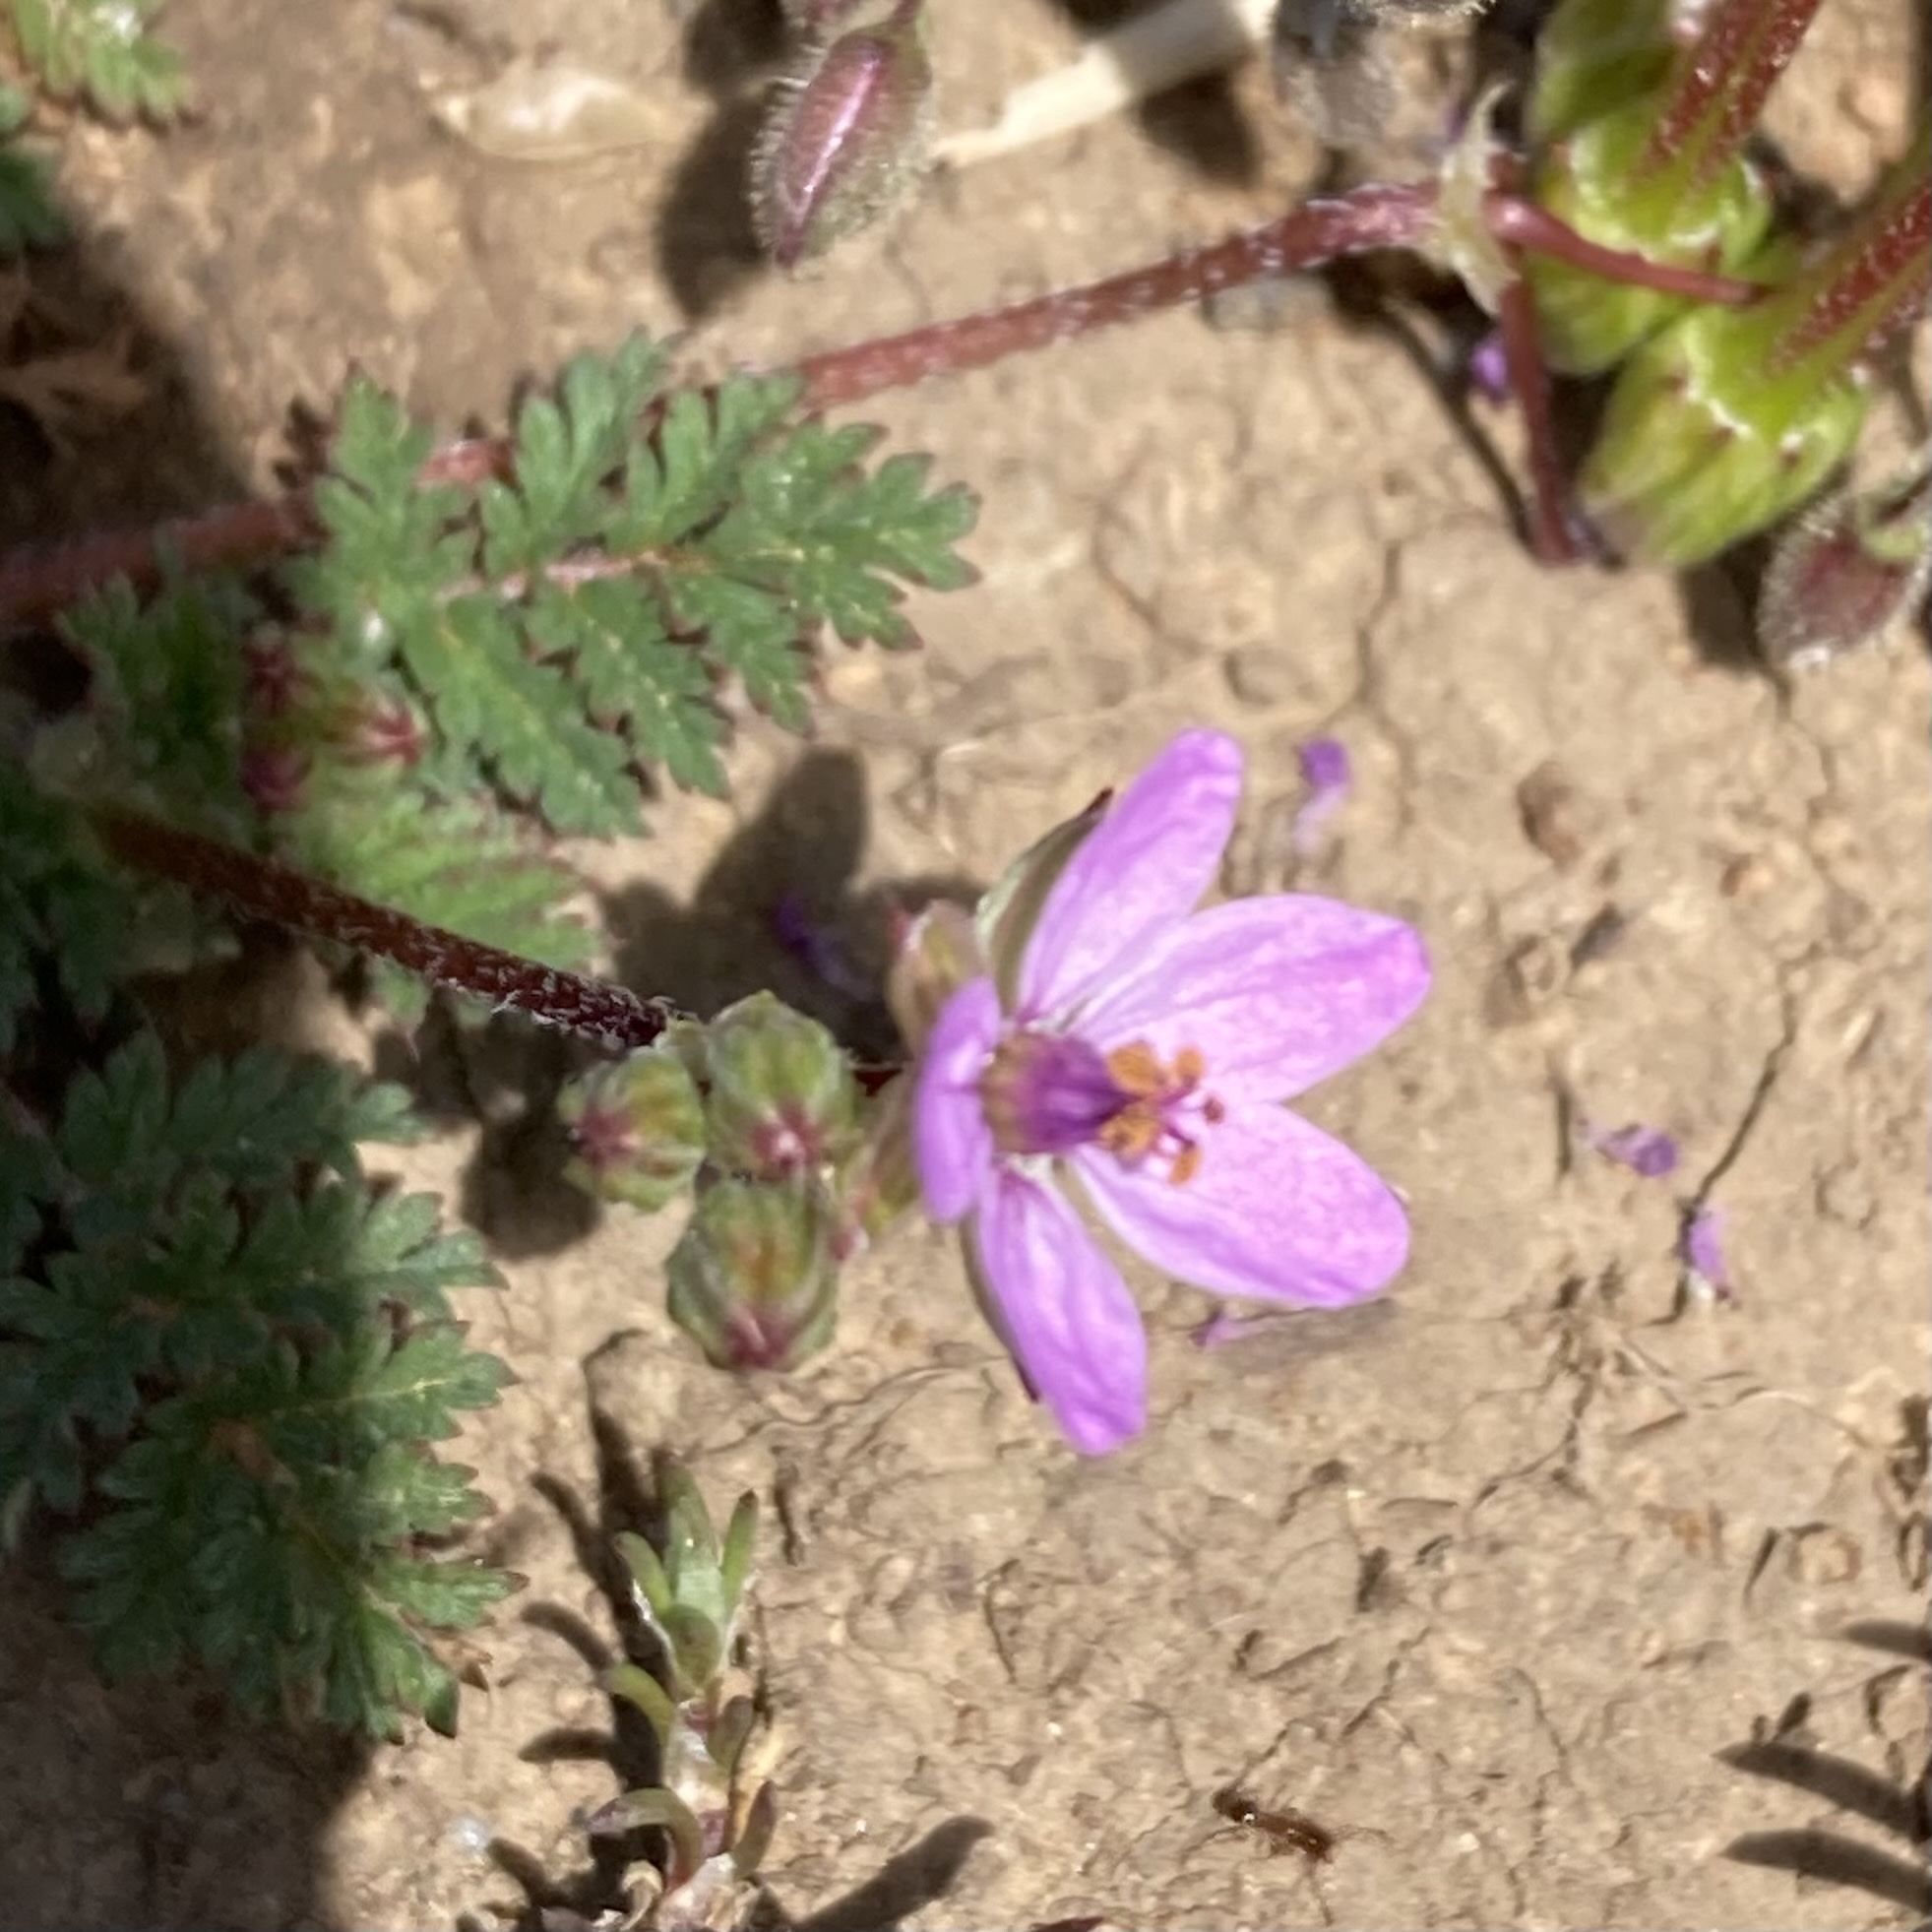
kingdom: Plantae
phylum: Tracheophyta
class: Magnoliopsida
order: Geraniales
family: Geraniaceae
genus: Erodium
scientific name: Erodium cicutarium
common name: Common stork's-bill
